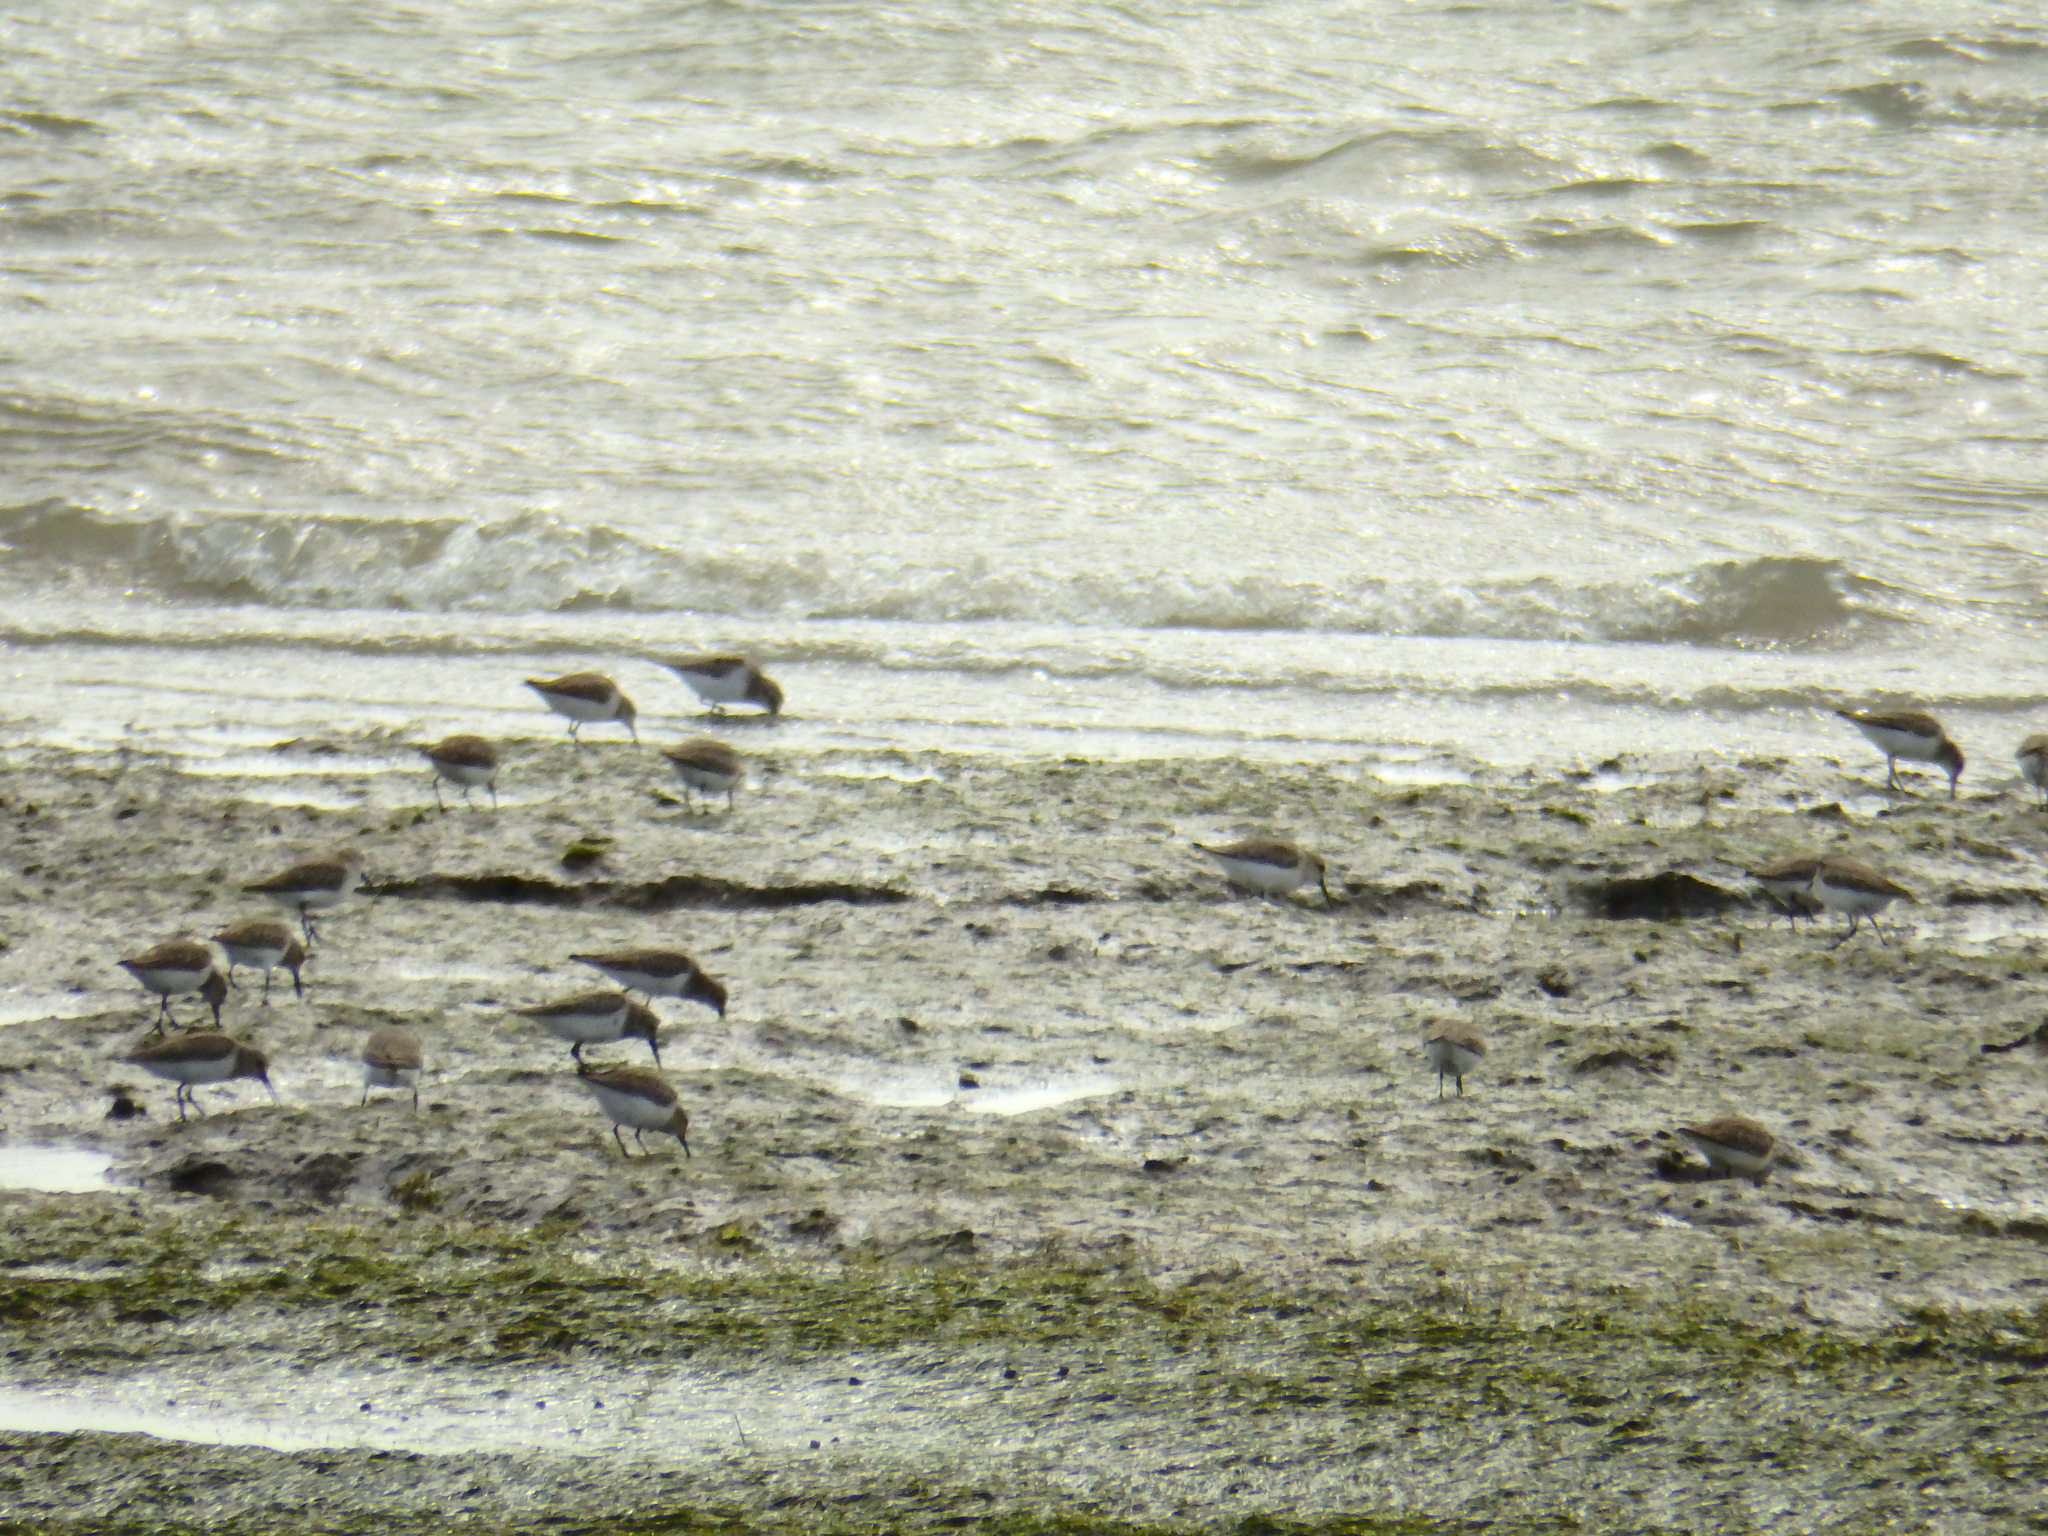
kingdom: Animalia
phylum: Chordata
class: Aves
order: Charadriiformes
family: Scolopacidae
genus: Calidris
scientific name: Calidris alpina
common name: Dunlin
